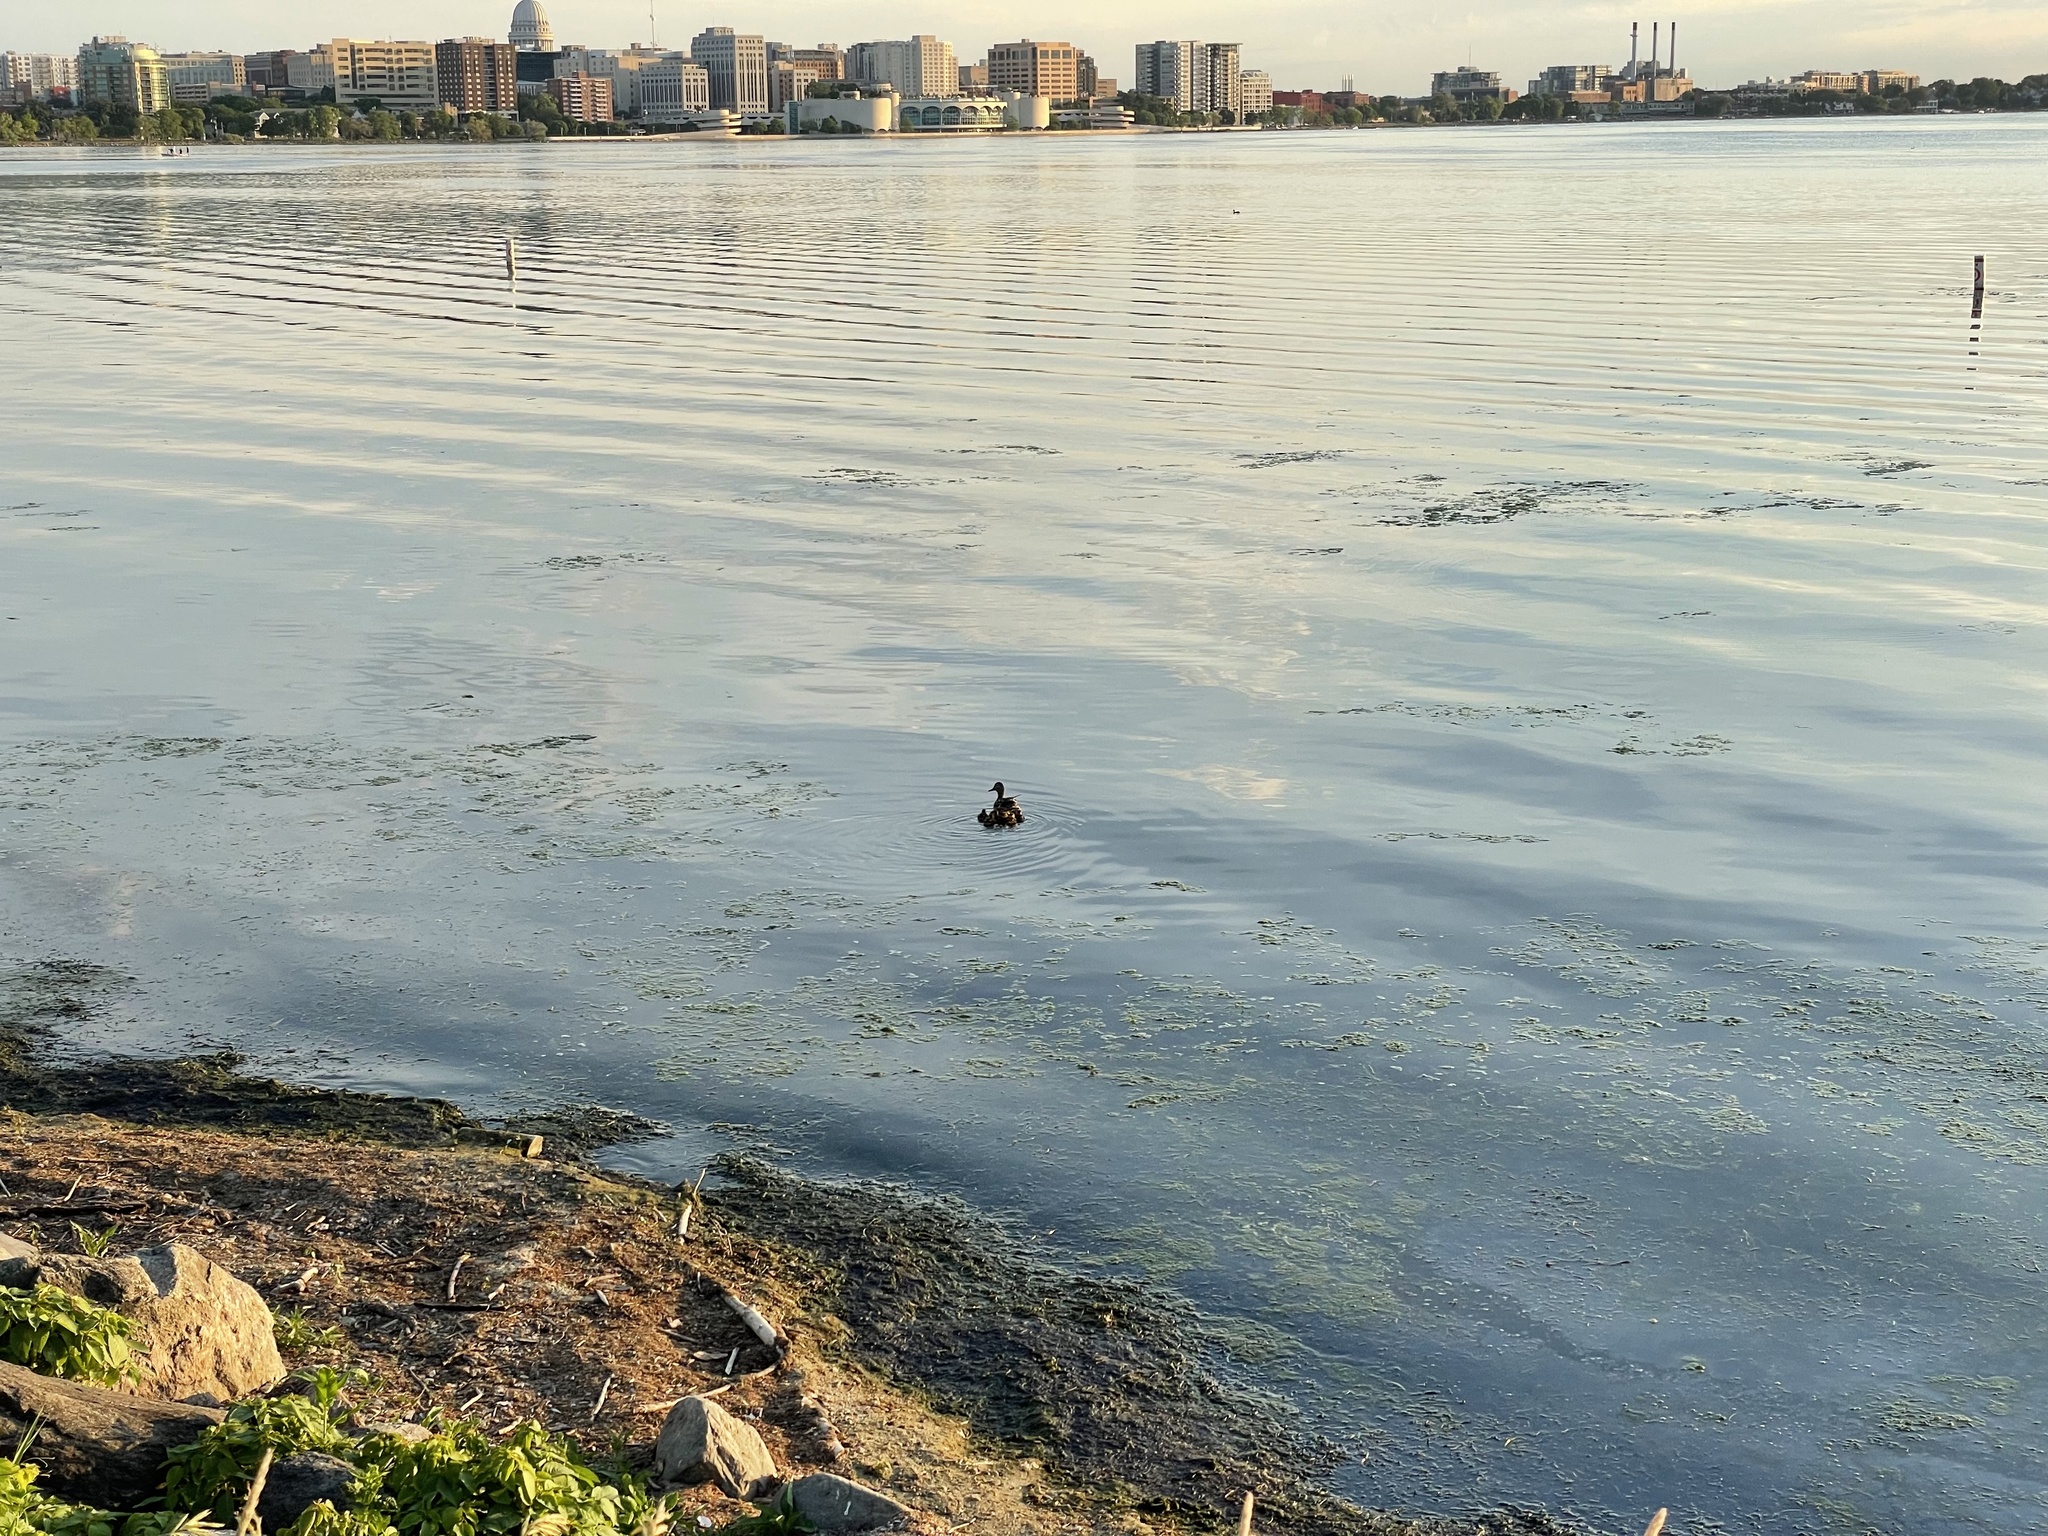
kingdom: Animalia
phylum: Chordata
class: Aves
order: Anseriformes
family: Anatidae
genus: Anas
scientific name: Anas platyrhynchos
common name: Mallard
